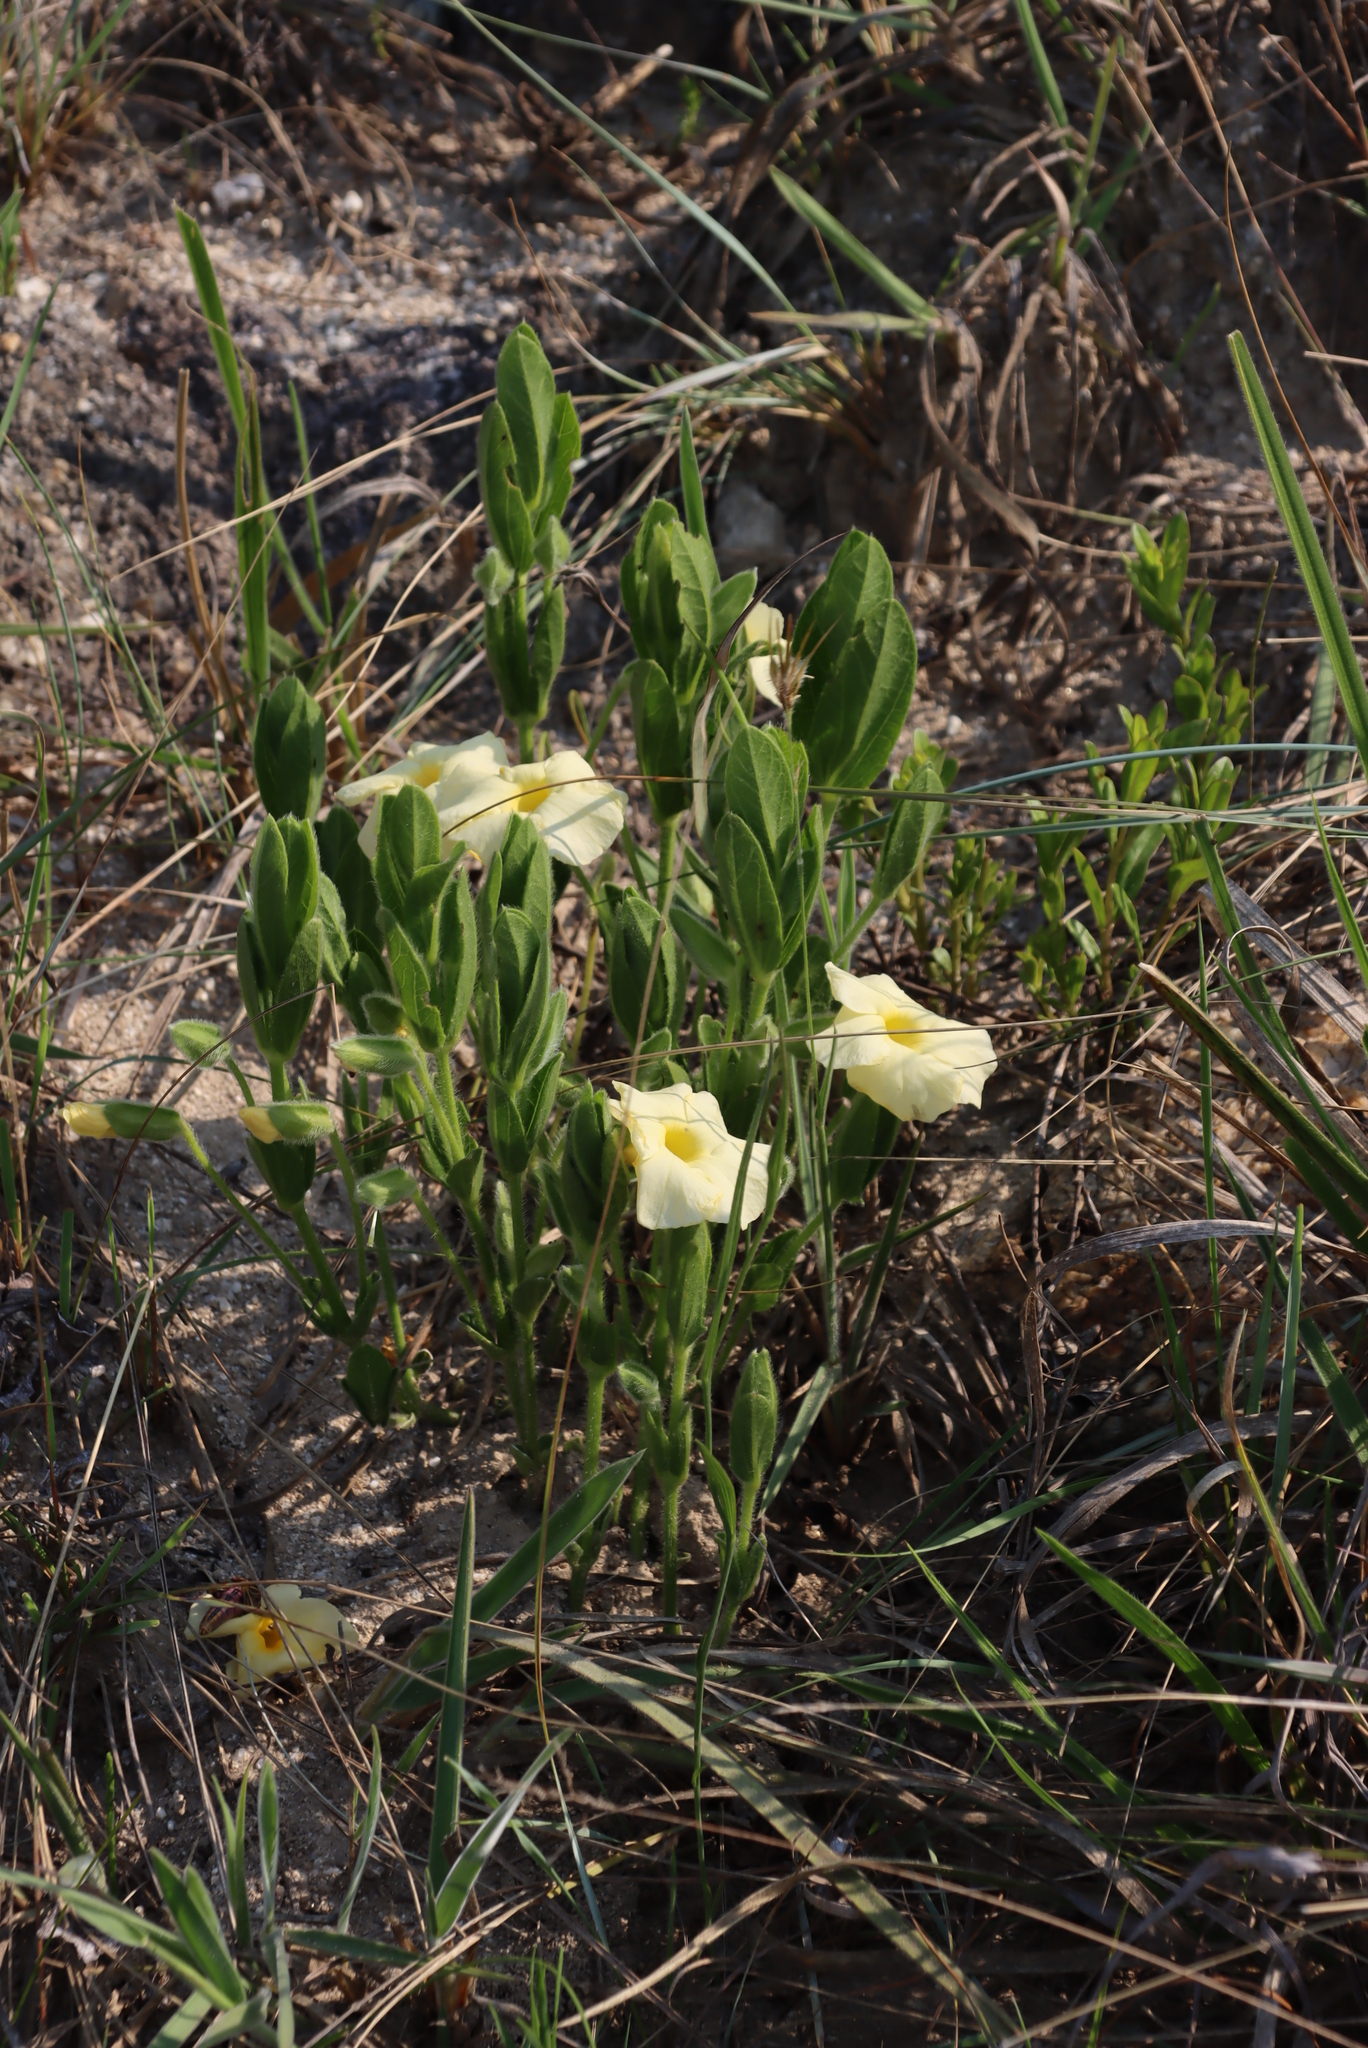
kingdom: Plantae
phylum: Tracheophyta
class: Magnoliopsida
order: Lamiales
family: Acanthaceae
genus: Thunbergia
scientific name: Thunbergia atriplicifolia
